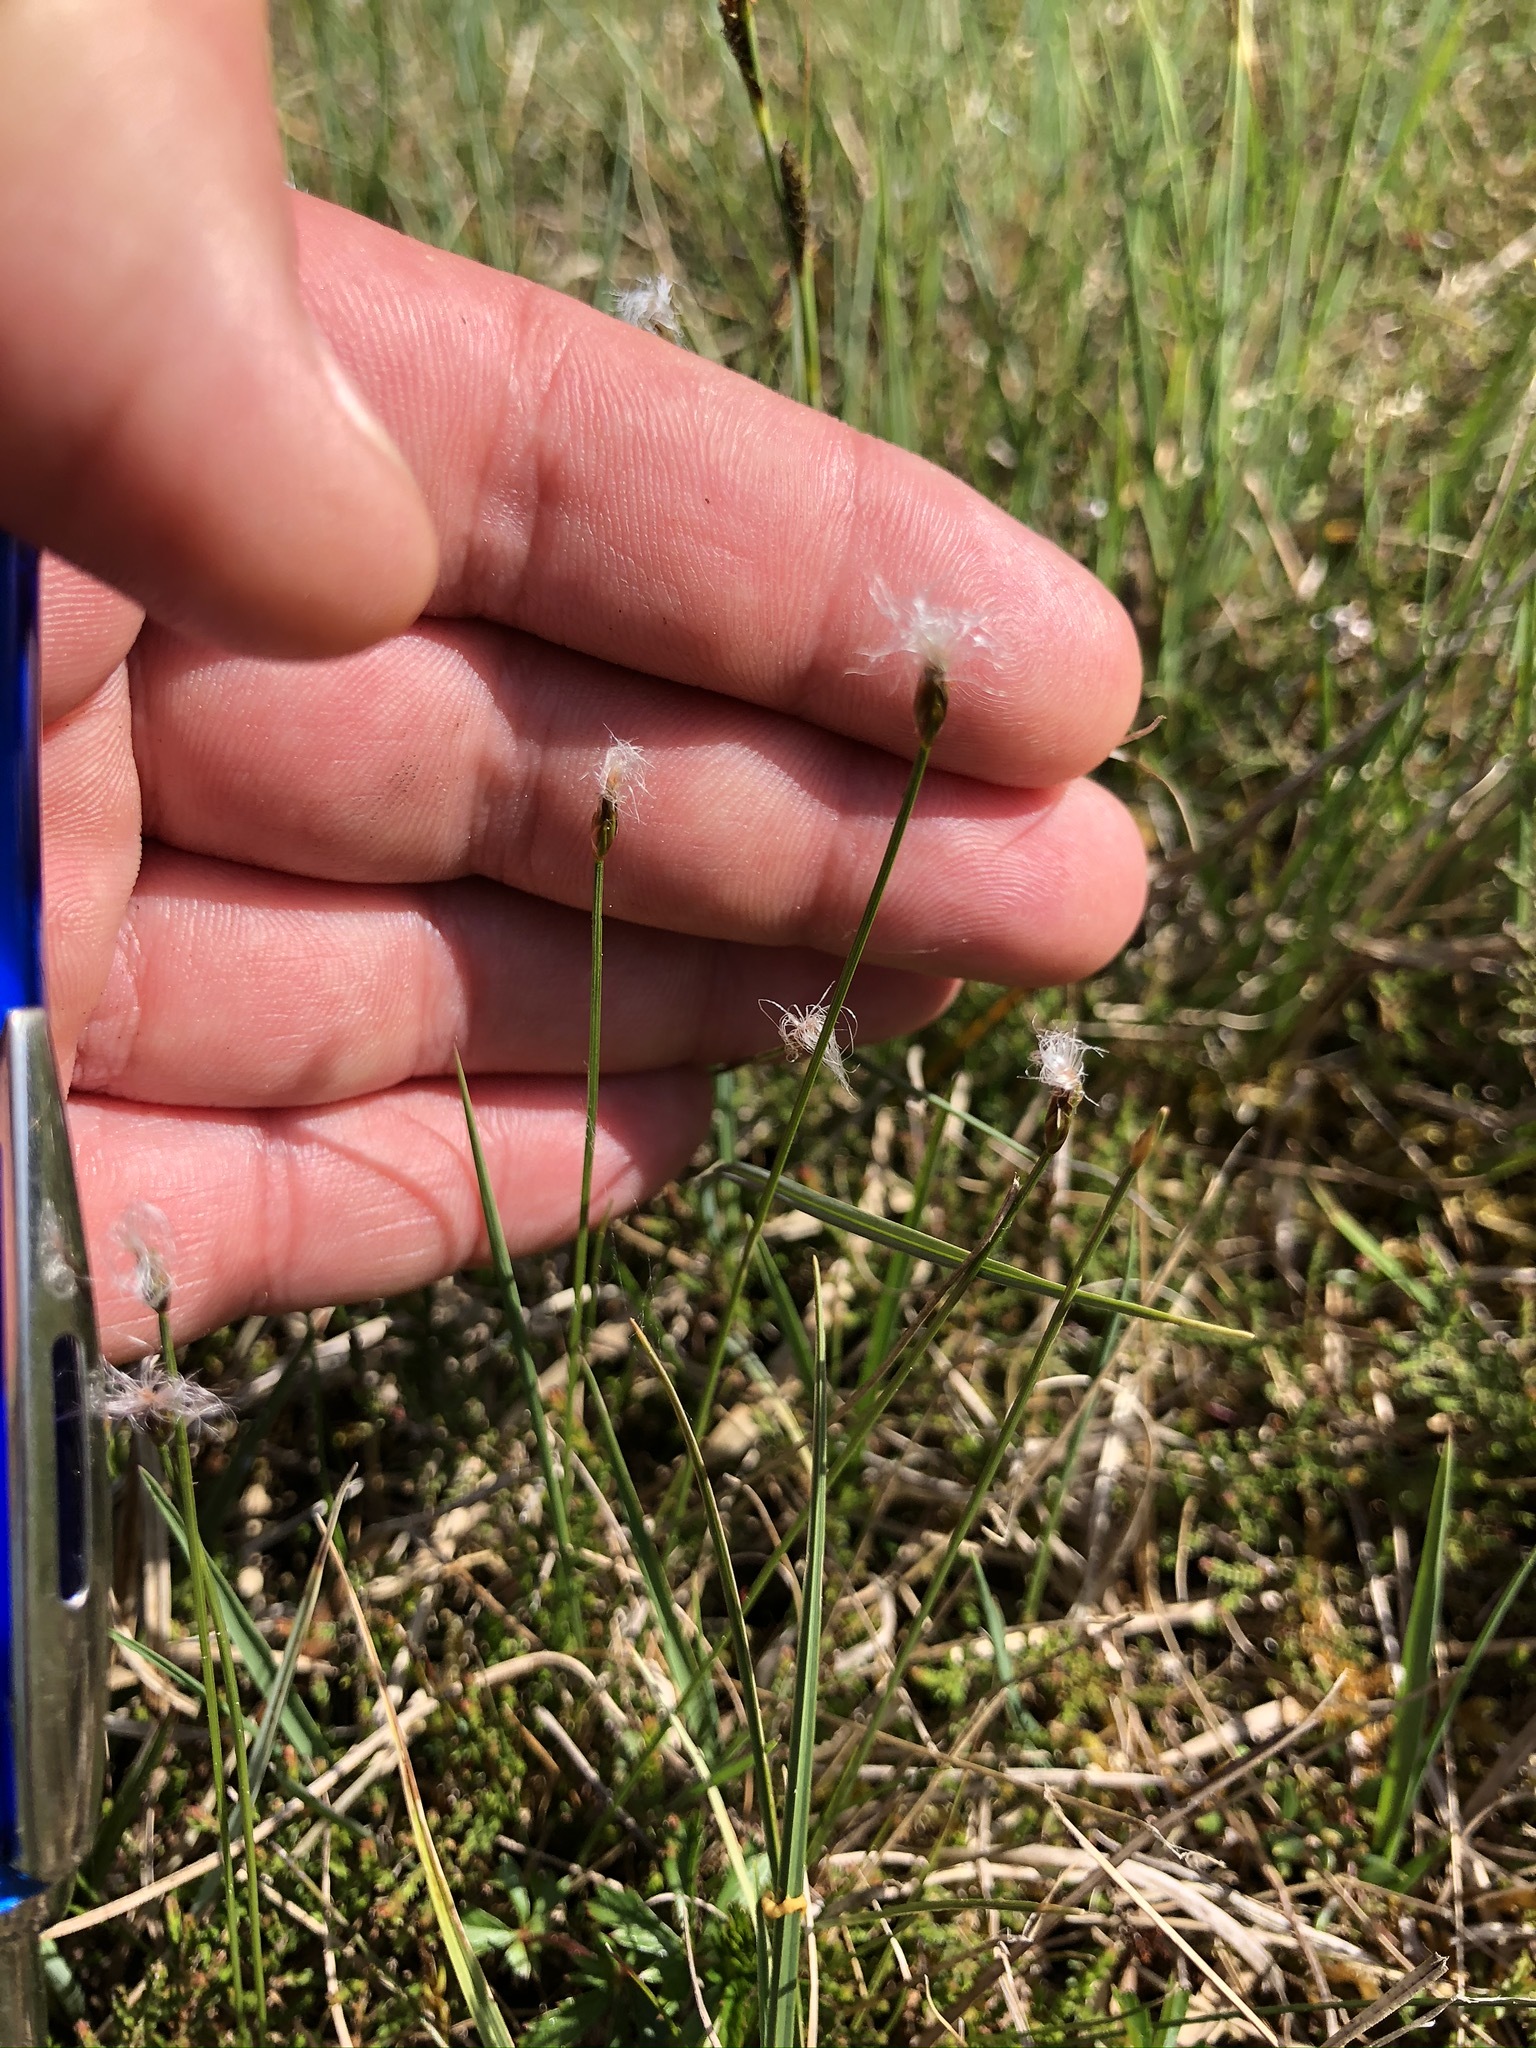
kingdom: Plantae
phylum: Tracheophyta
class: Liliopsida
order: Poales
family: Cyperaceae
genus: Trichophorum
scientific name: Trichophorum alpinum
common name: Alpine bulrush
